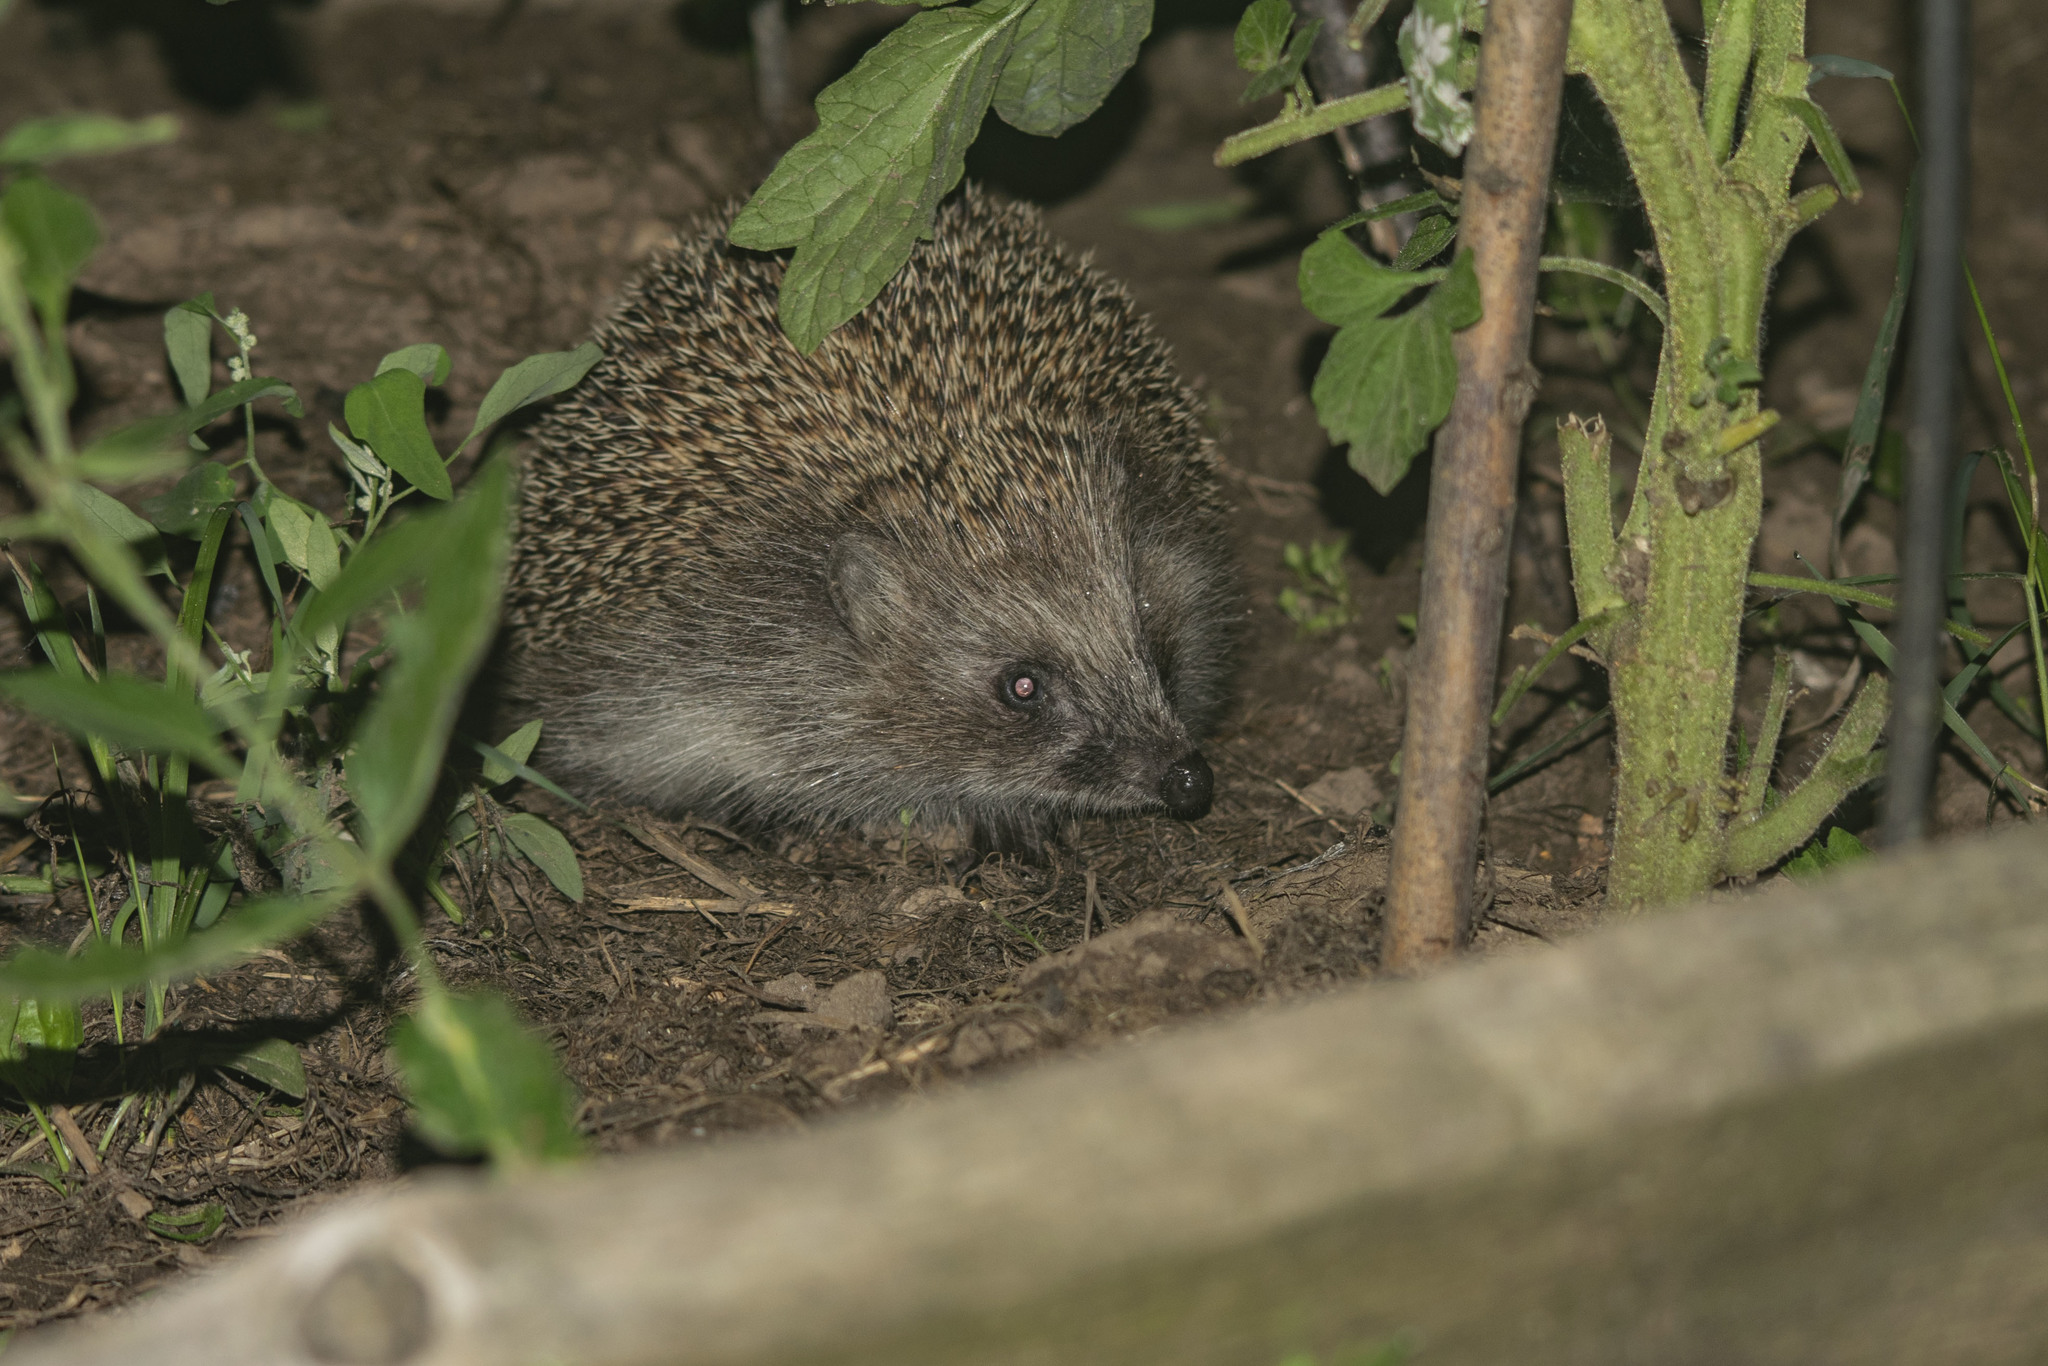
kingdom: Animalia
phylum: Chordata
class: Mammalia
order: Erinaceomorpha
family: Erinaceidae
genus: Erinaceus
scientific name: Erinaceus roumanicus
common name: Northern white-breasted hedgehog
